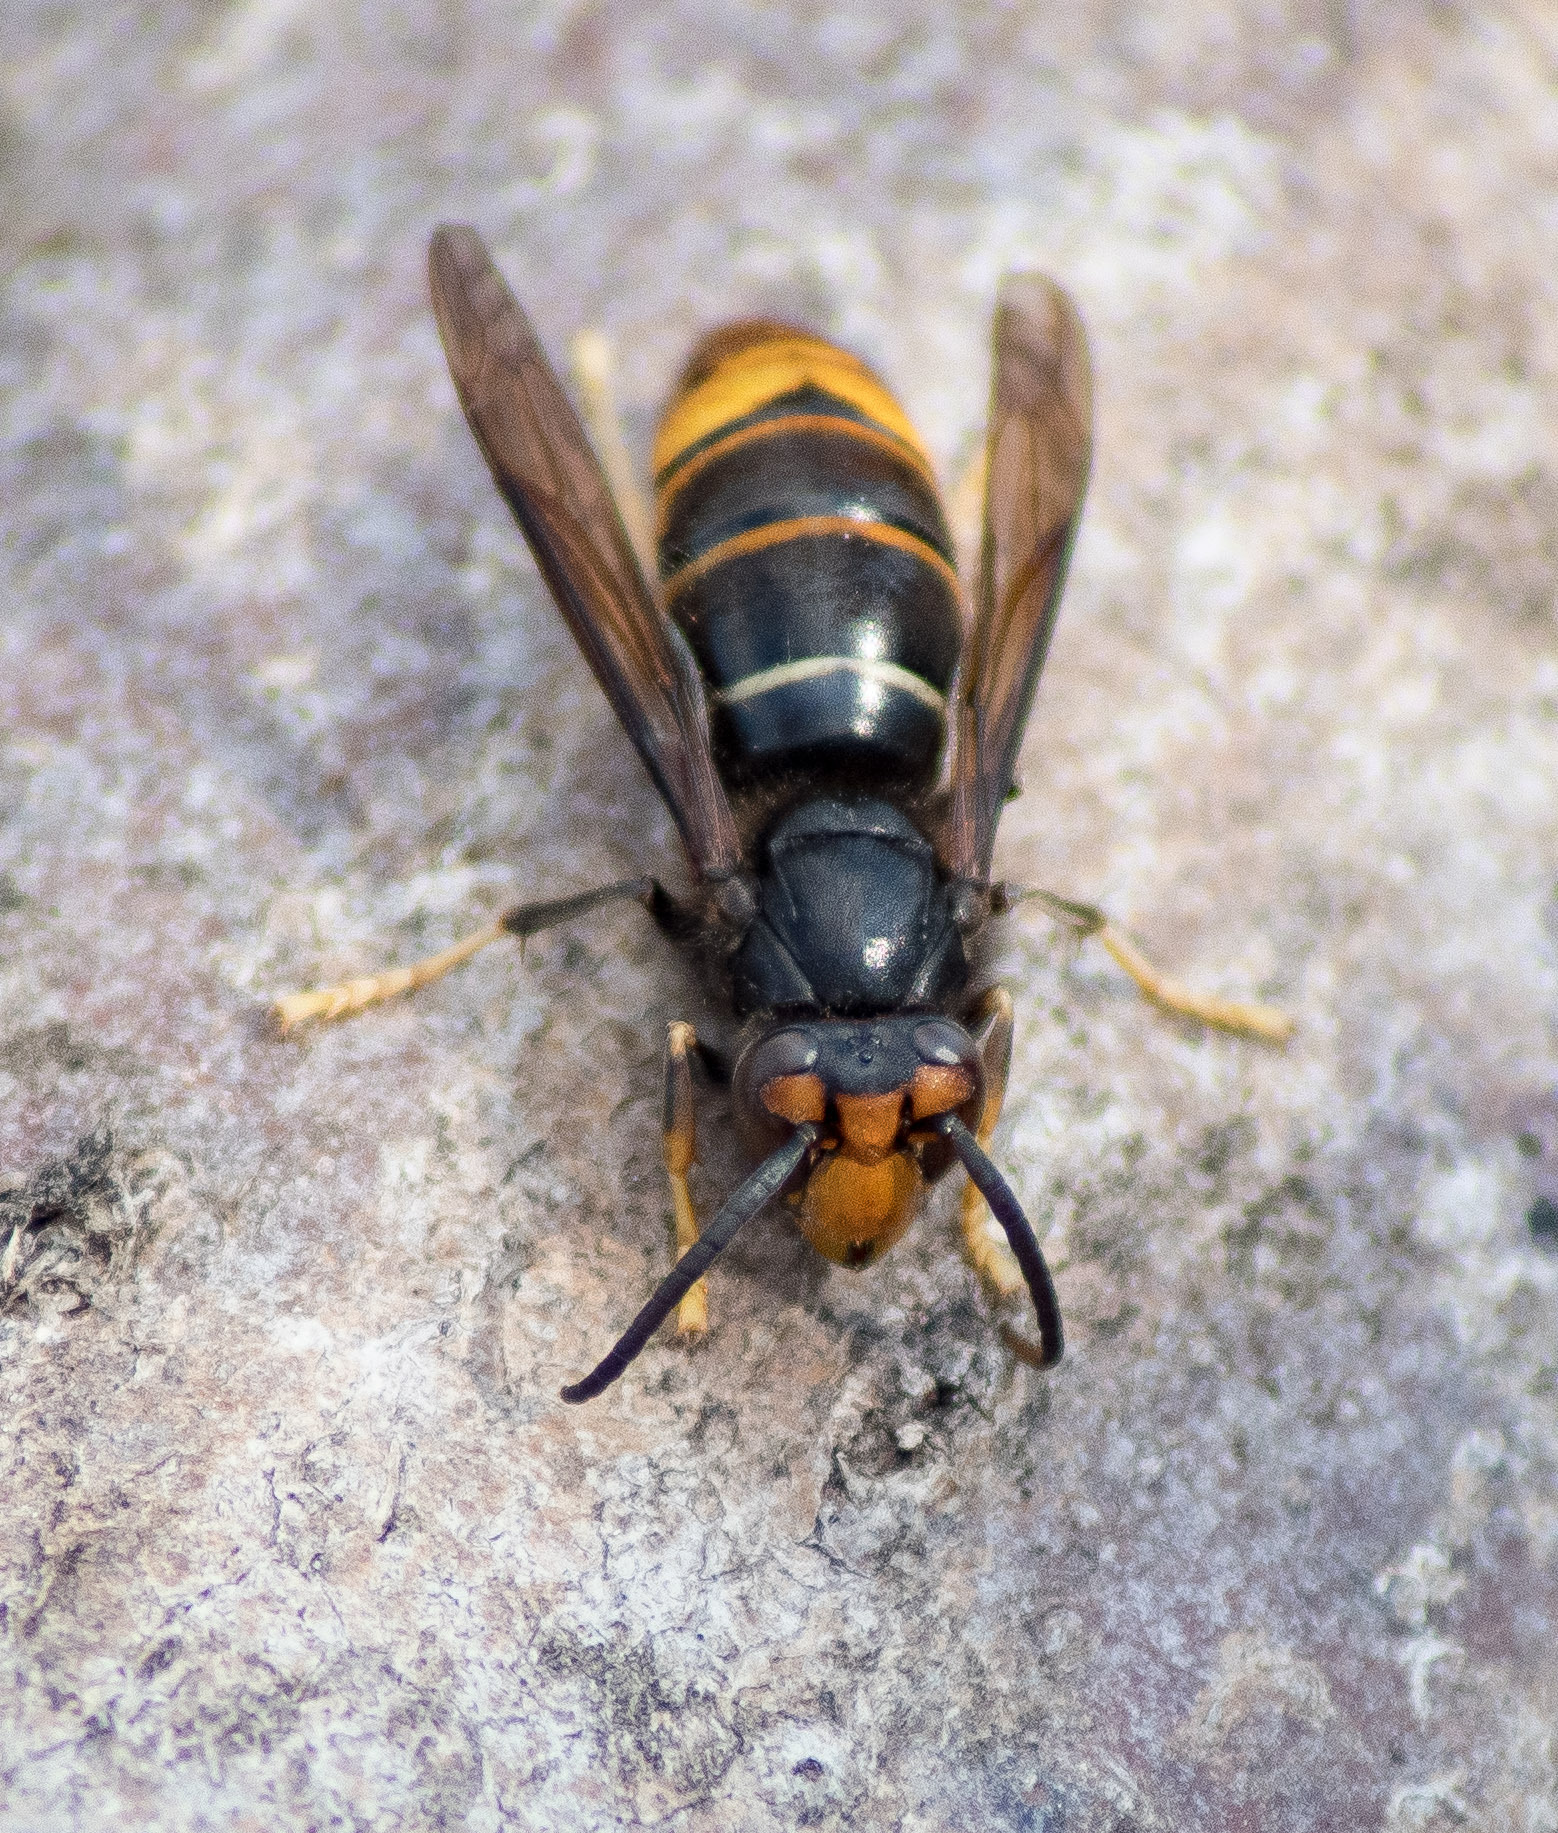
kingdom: Animalia
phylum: Arthropoda
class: Insecta
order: Hymenoptera
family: Vespidae
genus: Vespa
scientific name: Vespa velutina
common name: Asian hornet
